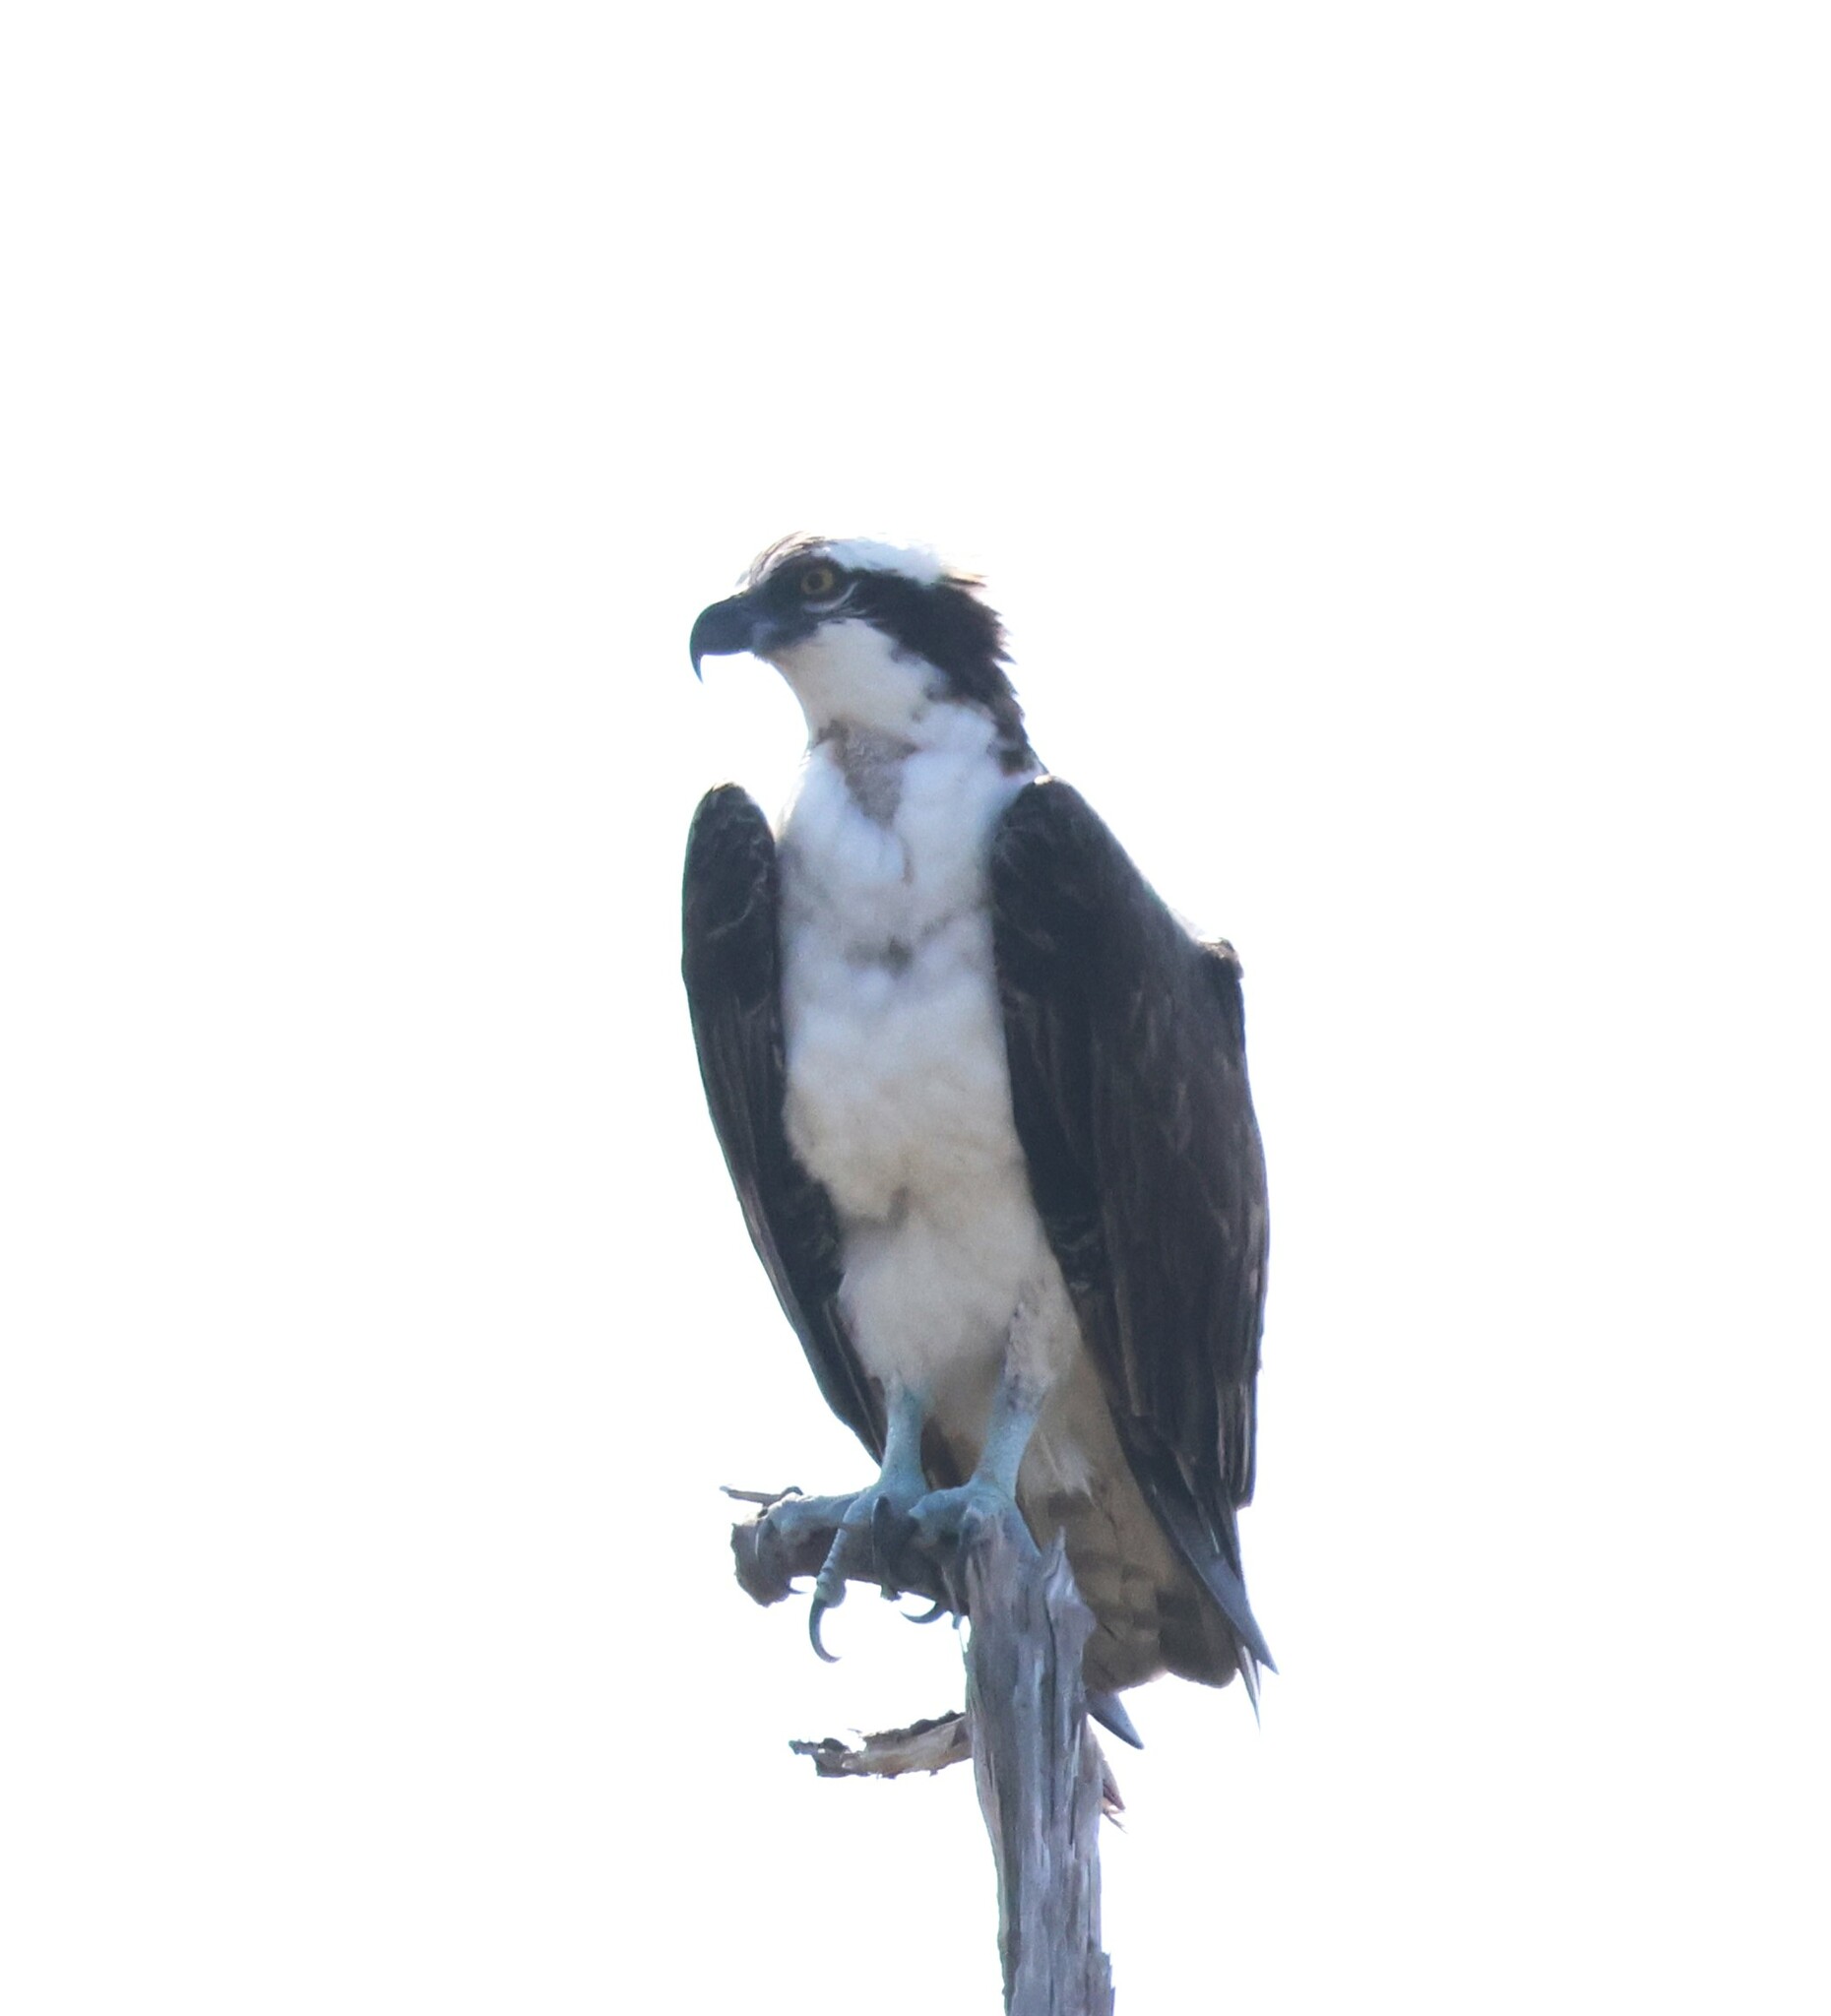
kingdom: Animalia
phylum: Chordata
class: Aves
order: Accipitriformes
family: Pandionidae
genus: Pandion
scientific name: Pandion haliaetus
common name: Osprey
